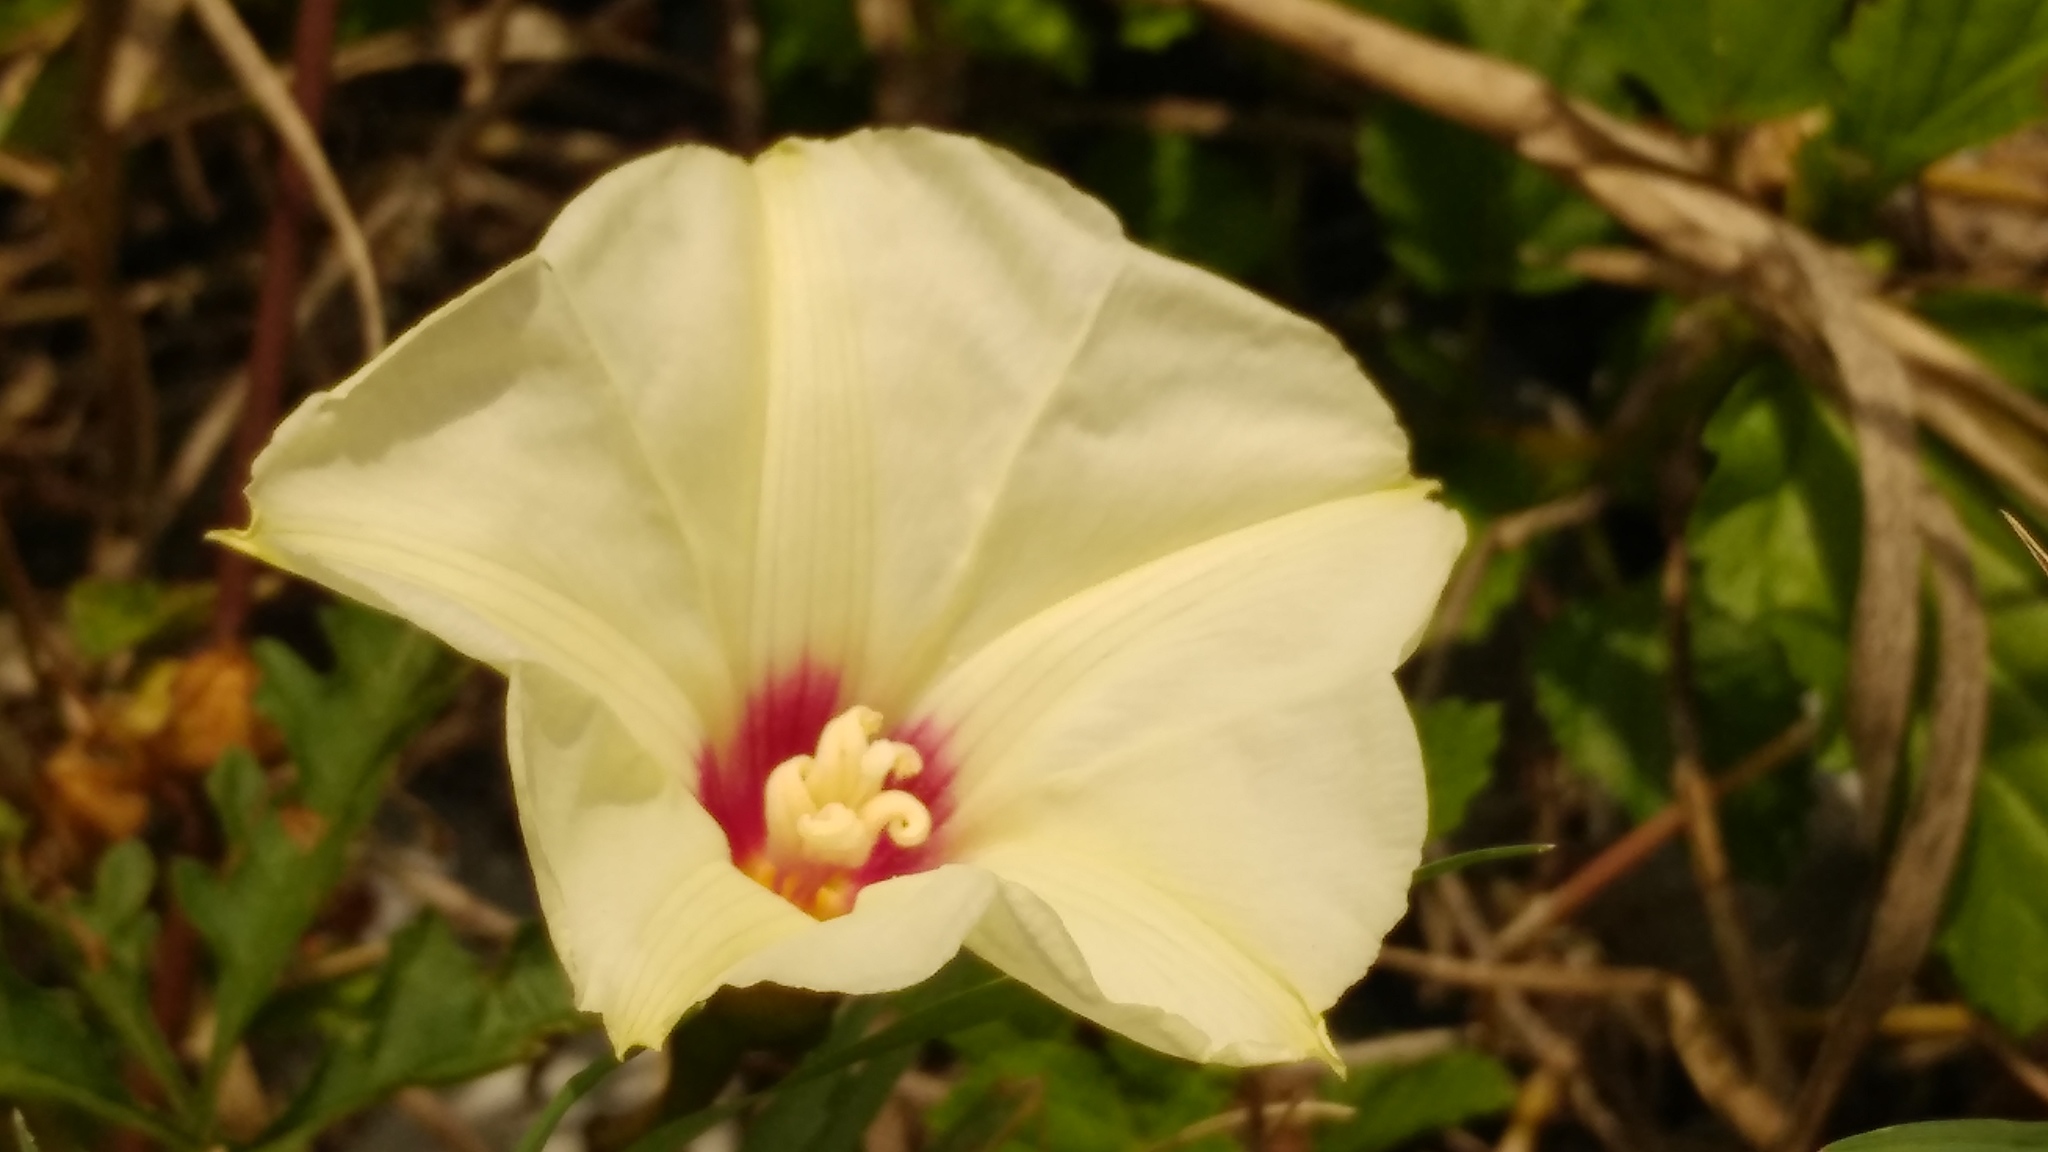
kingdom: Plantae
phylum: Tracheophyta
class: Magnoliopsida
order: Solanales
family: Convolvulaceae
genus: Distimake
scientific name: Distimake dissectus
